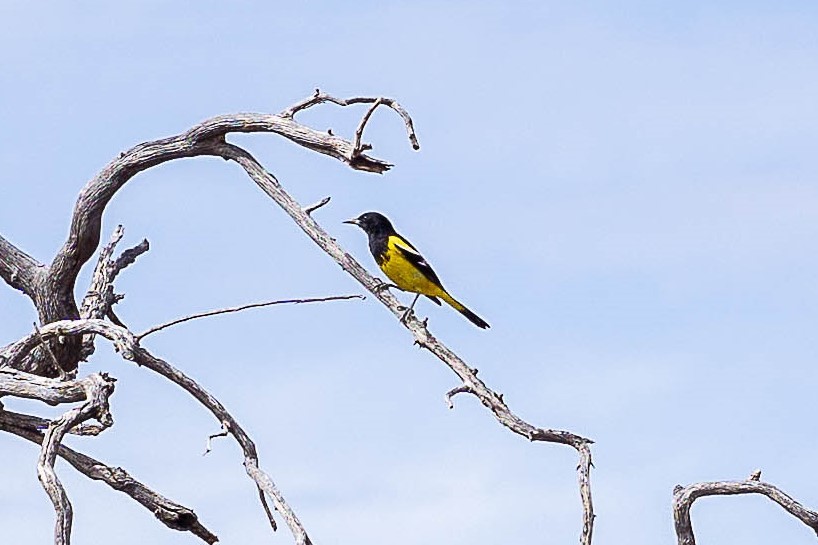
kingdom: Animalia
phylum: Chordata
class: Aves
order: Passeriformes
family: Icteridae
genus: Icterus
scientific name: Icterus parisorum
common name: Scott's oriole
